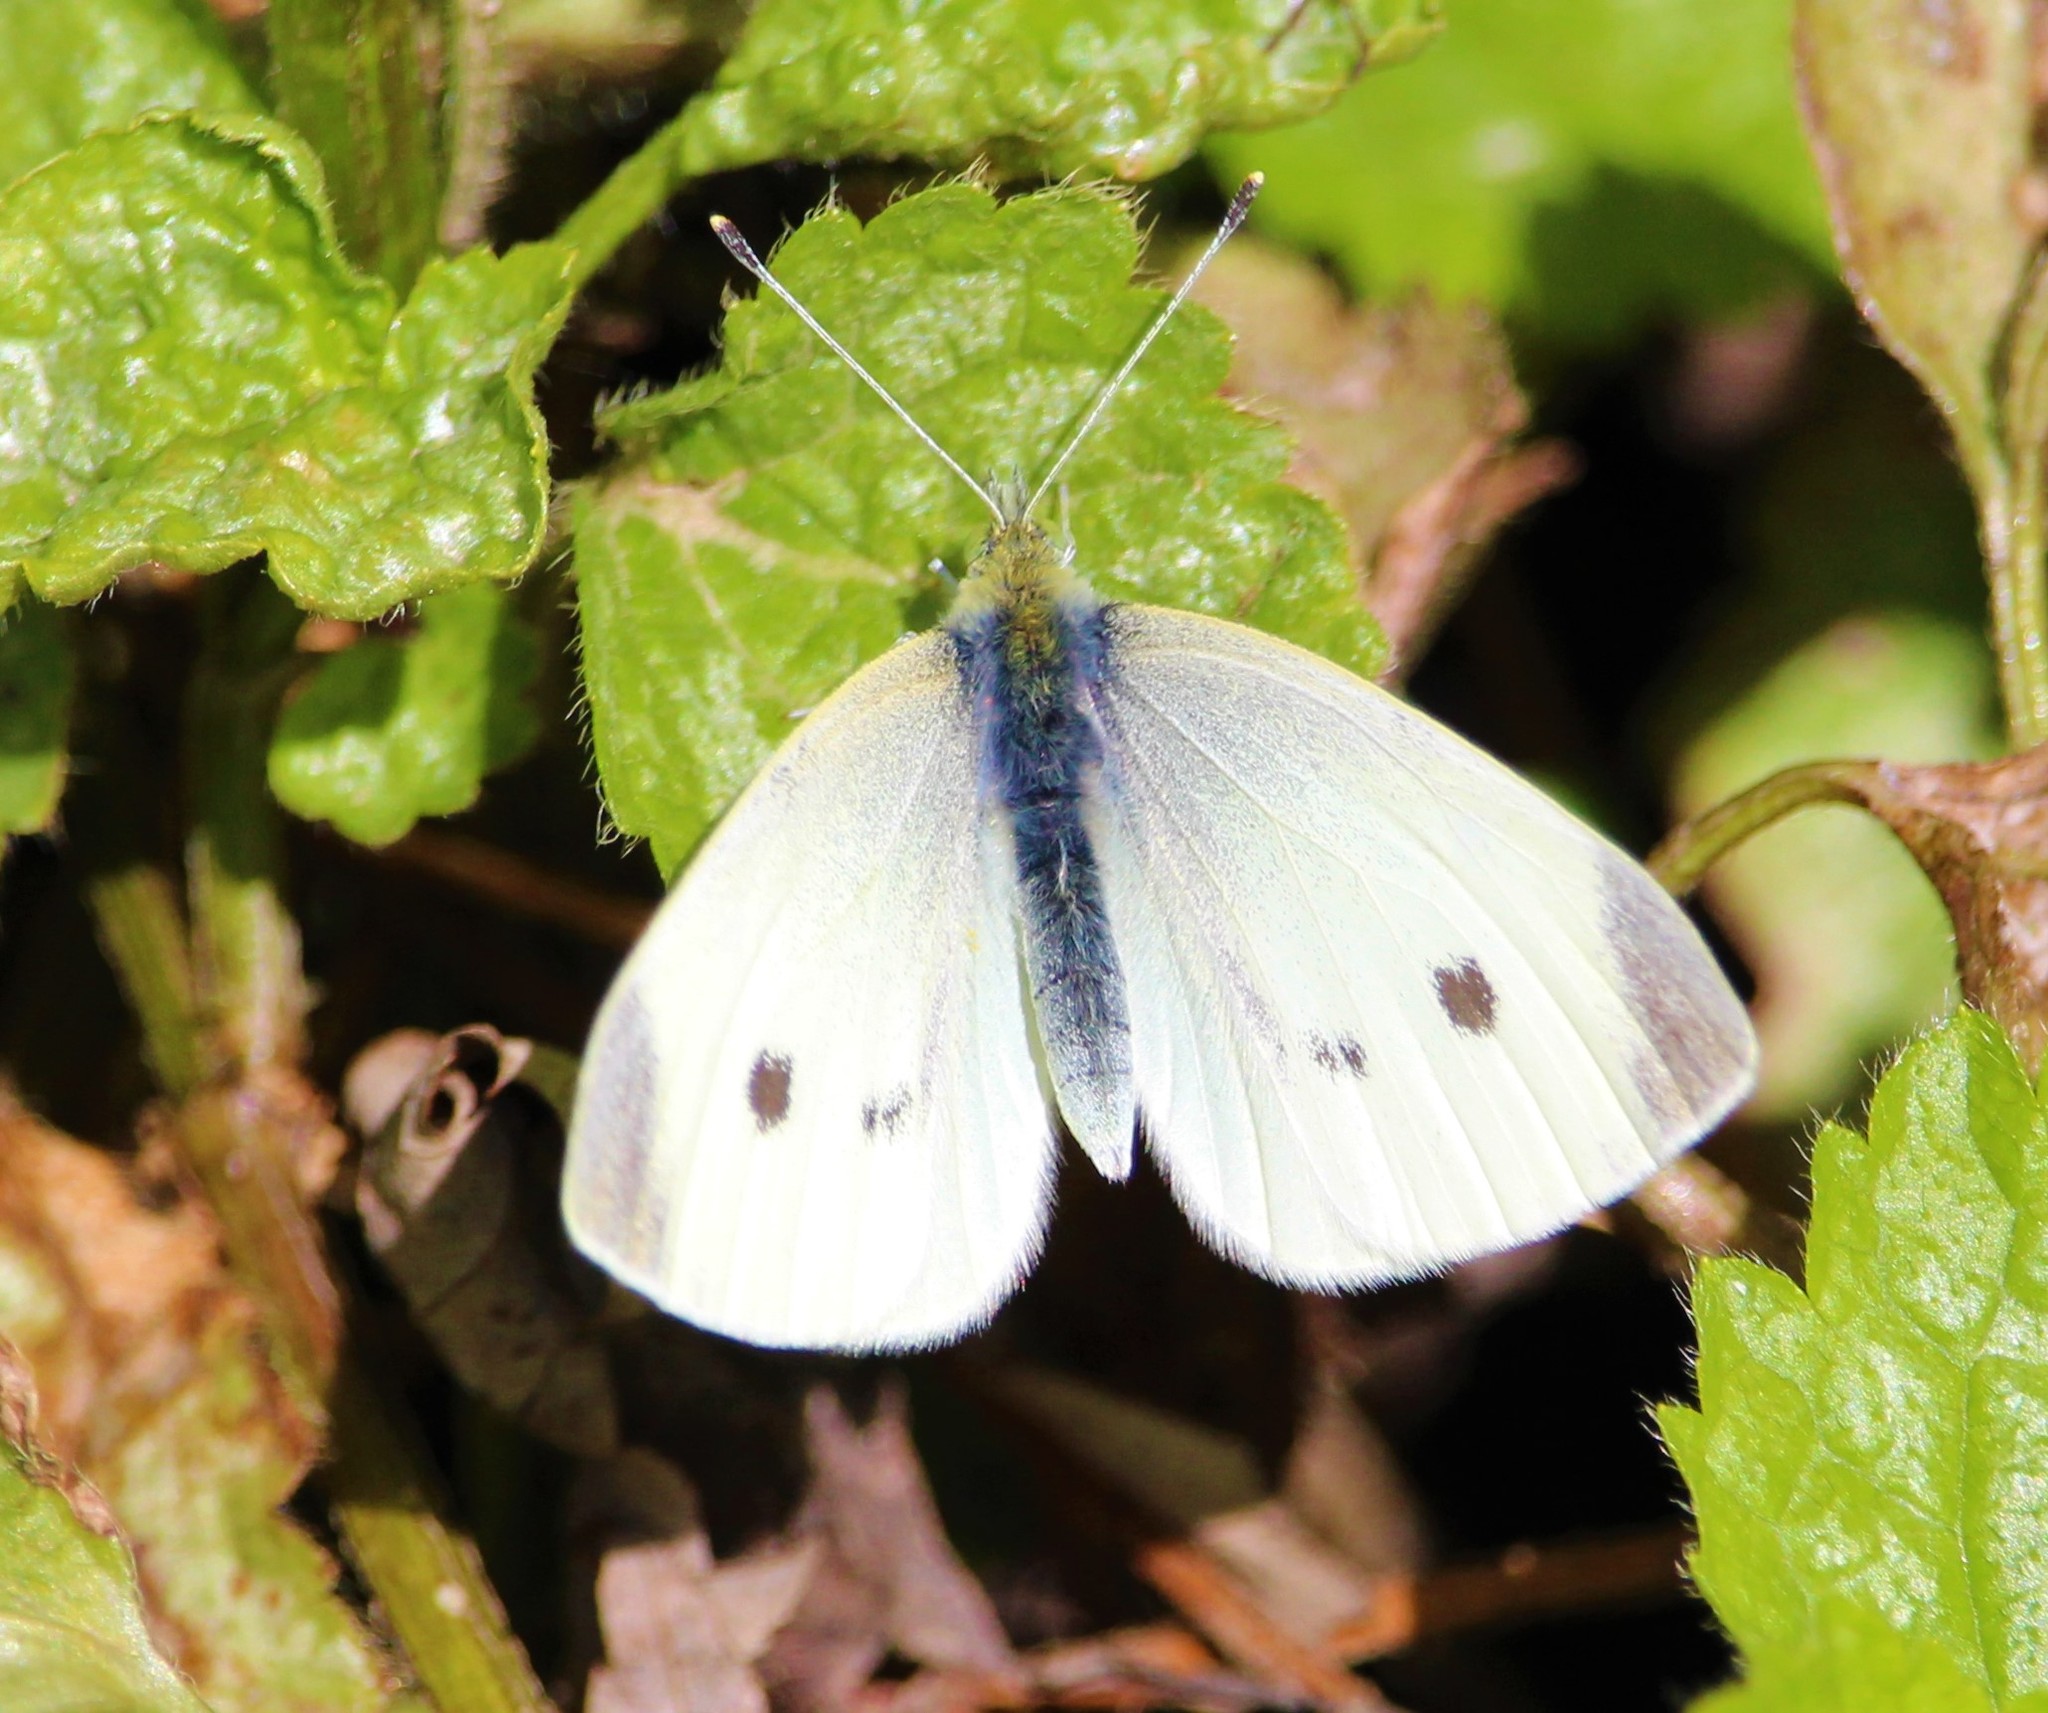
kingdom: Animalia
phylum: Arthropoda
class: Insecta
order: Lepidoptera
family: Pieridae
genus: Pieris
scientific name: Pieris rapae
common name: Small white
